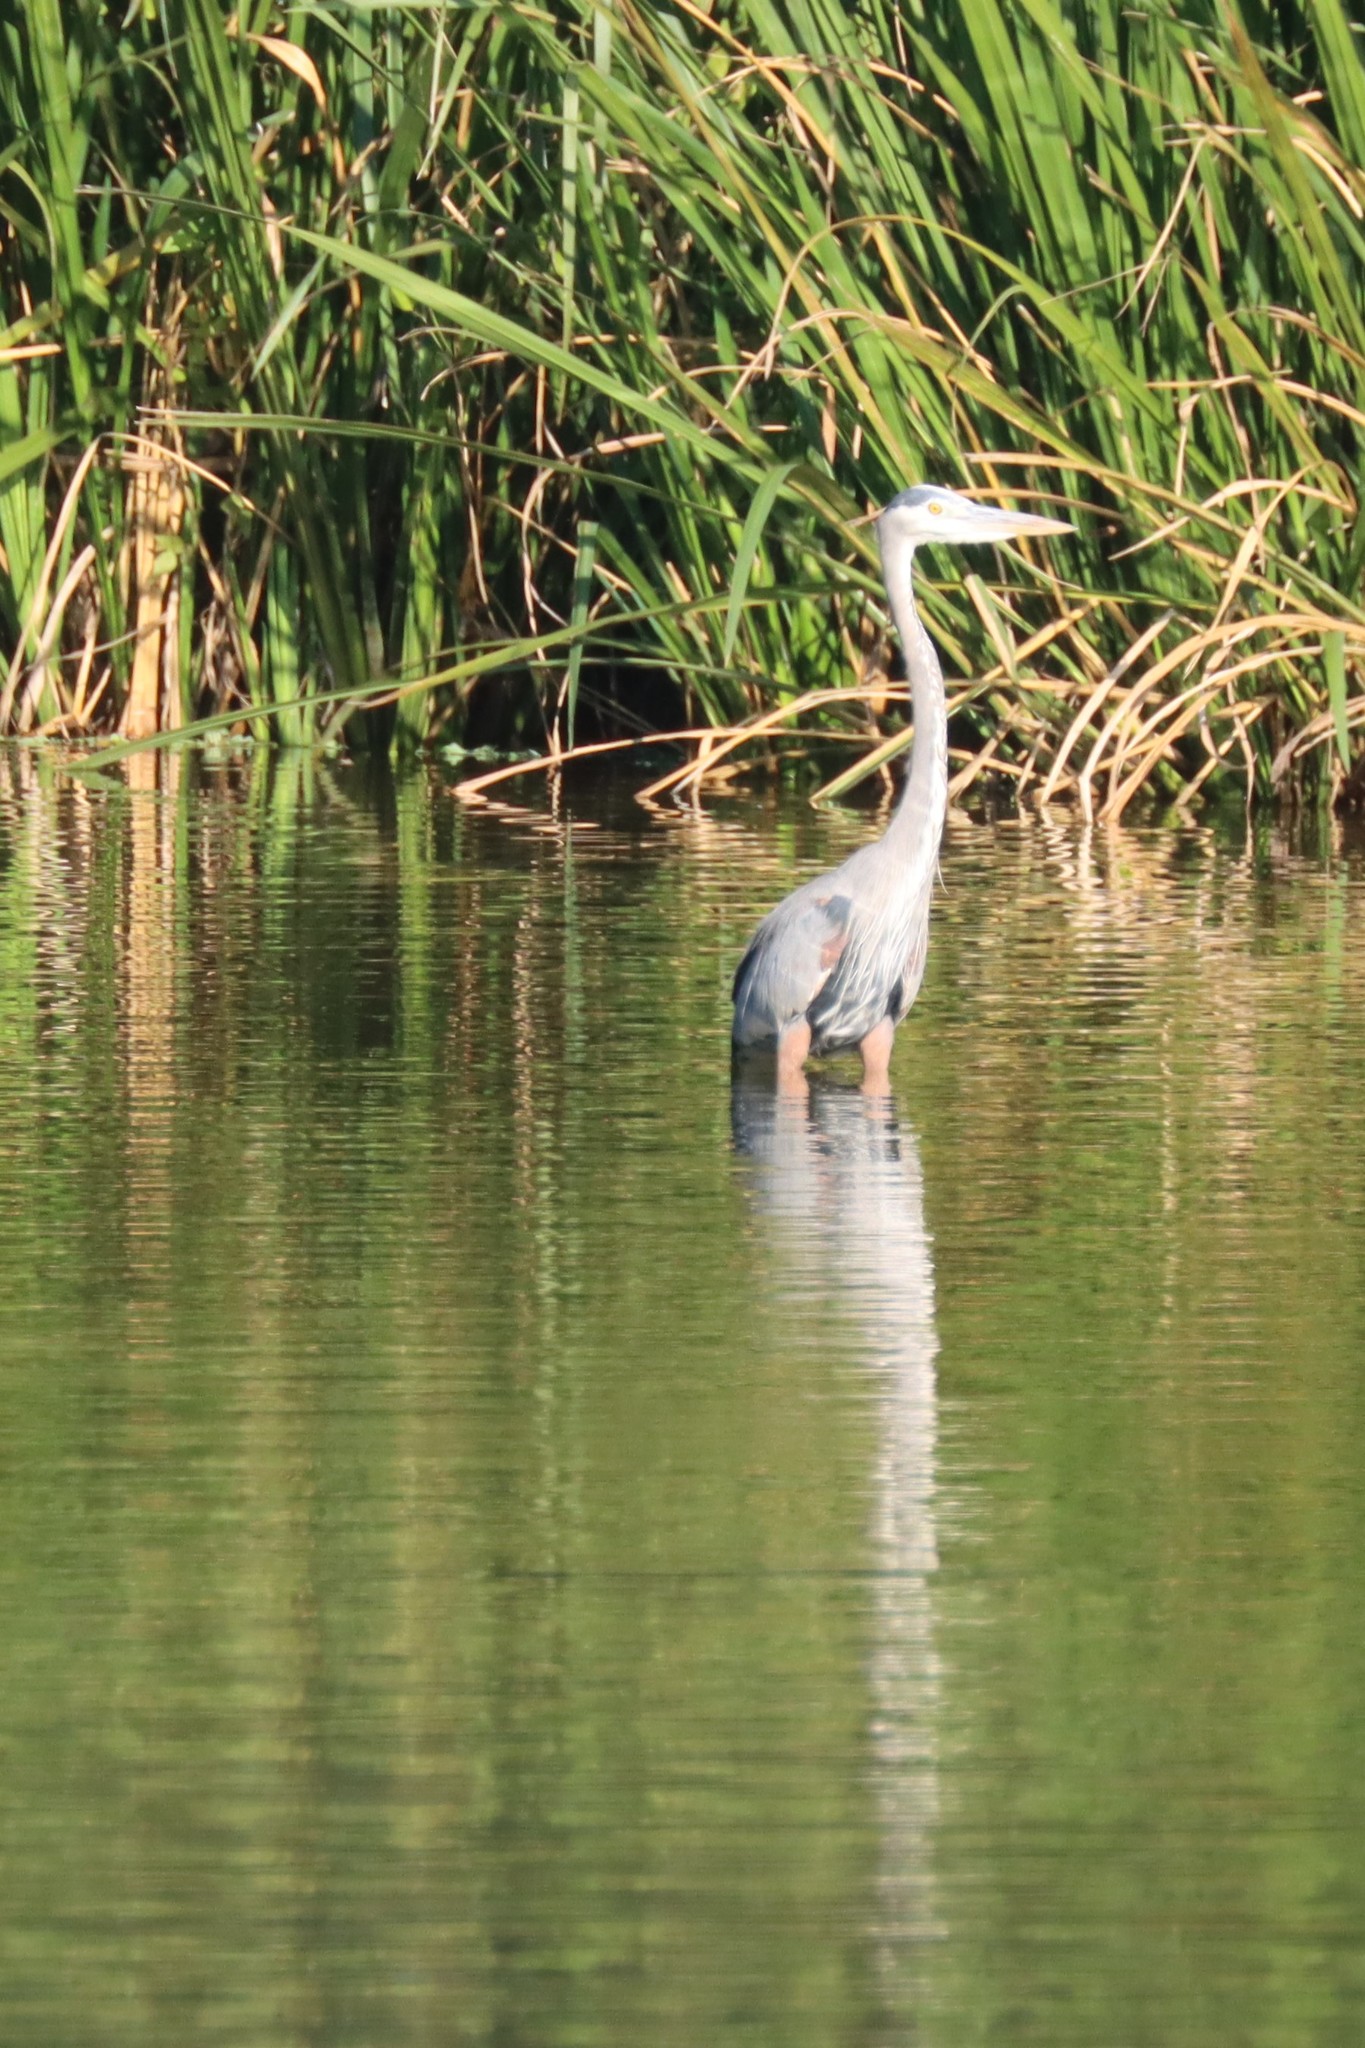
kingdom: Animalia
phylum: Chordata
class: Aves
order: Pelecaniformes
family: Ardeidae
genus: Ardea
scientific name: Ardea herodias
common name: Great blue heron
